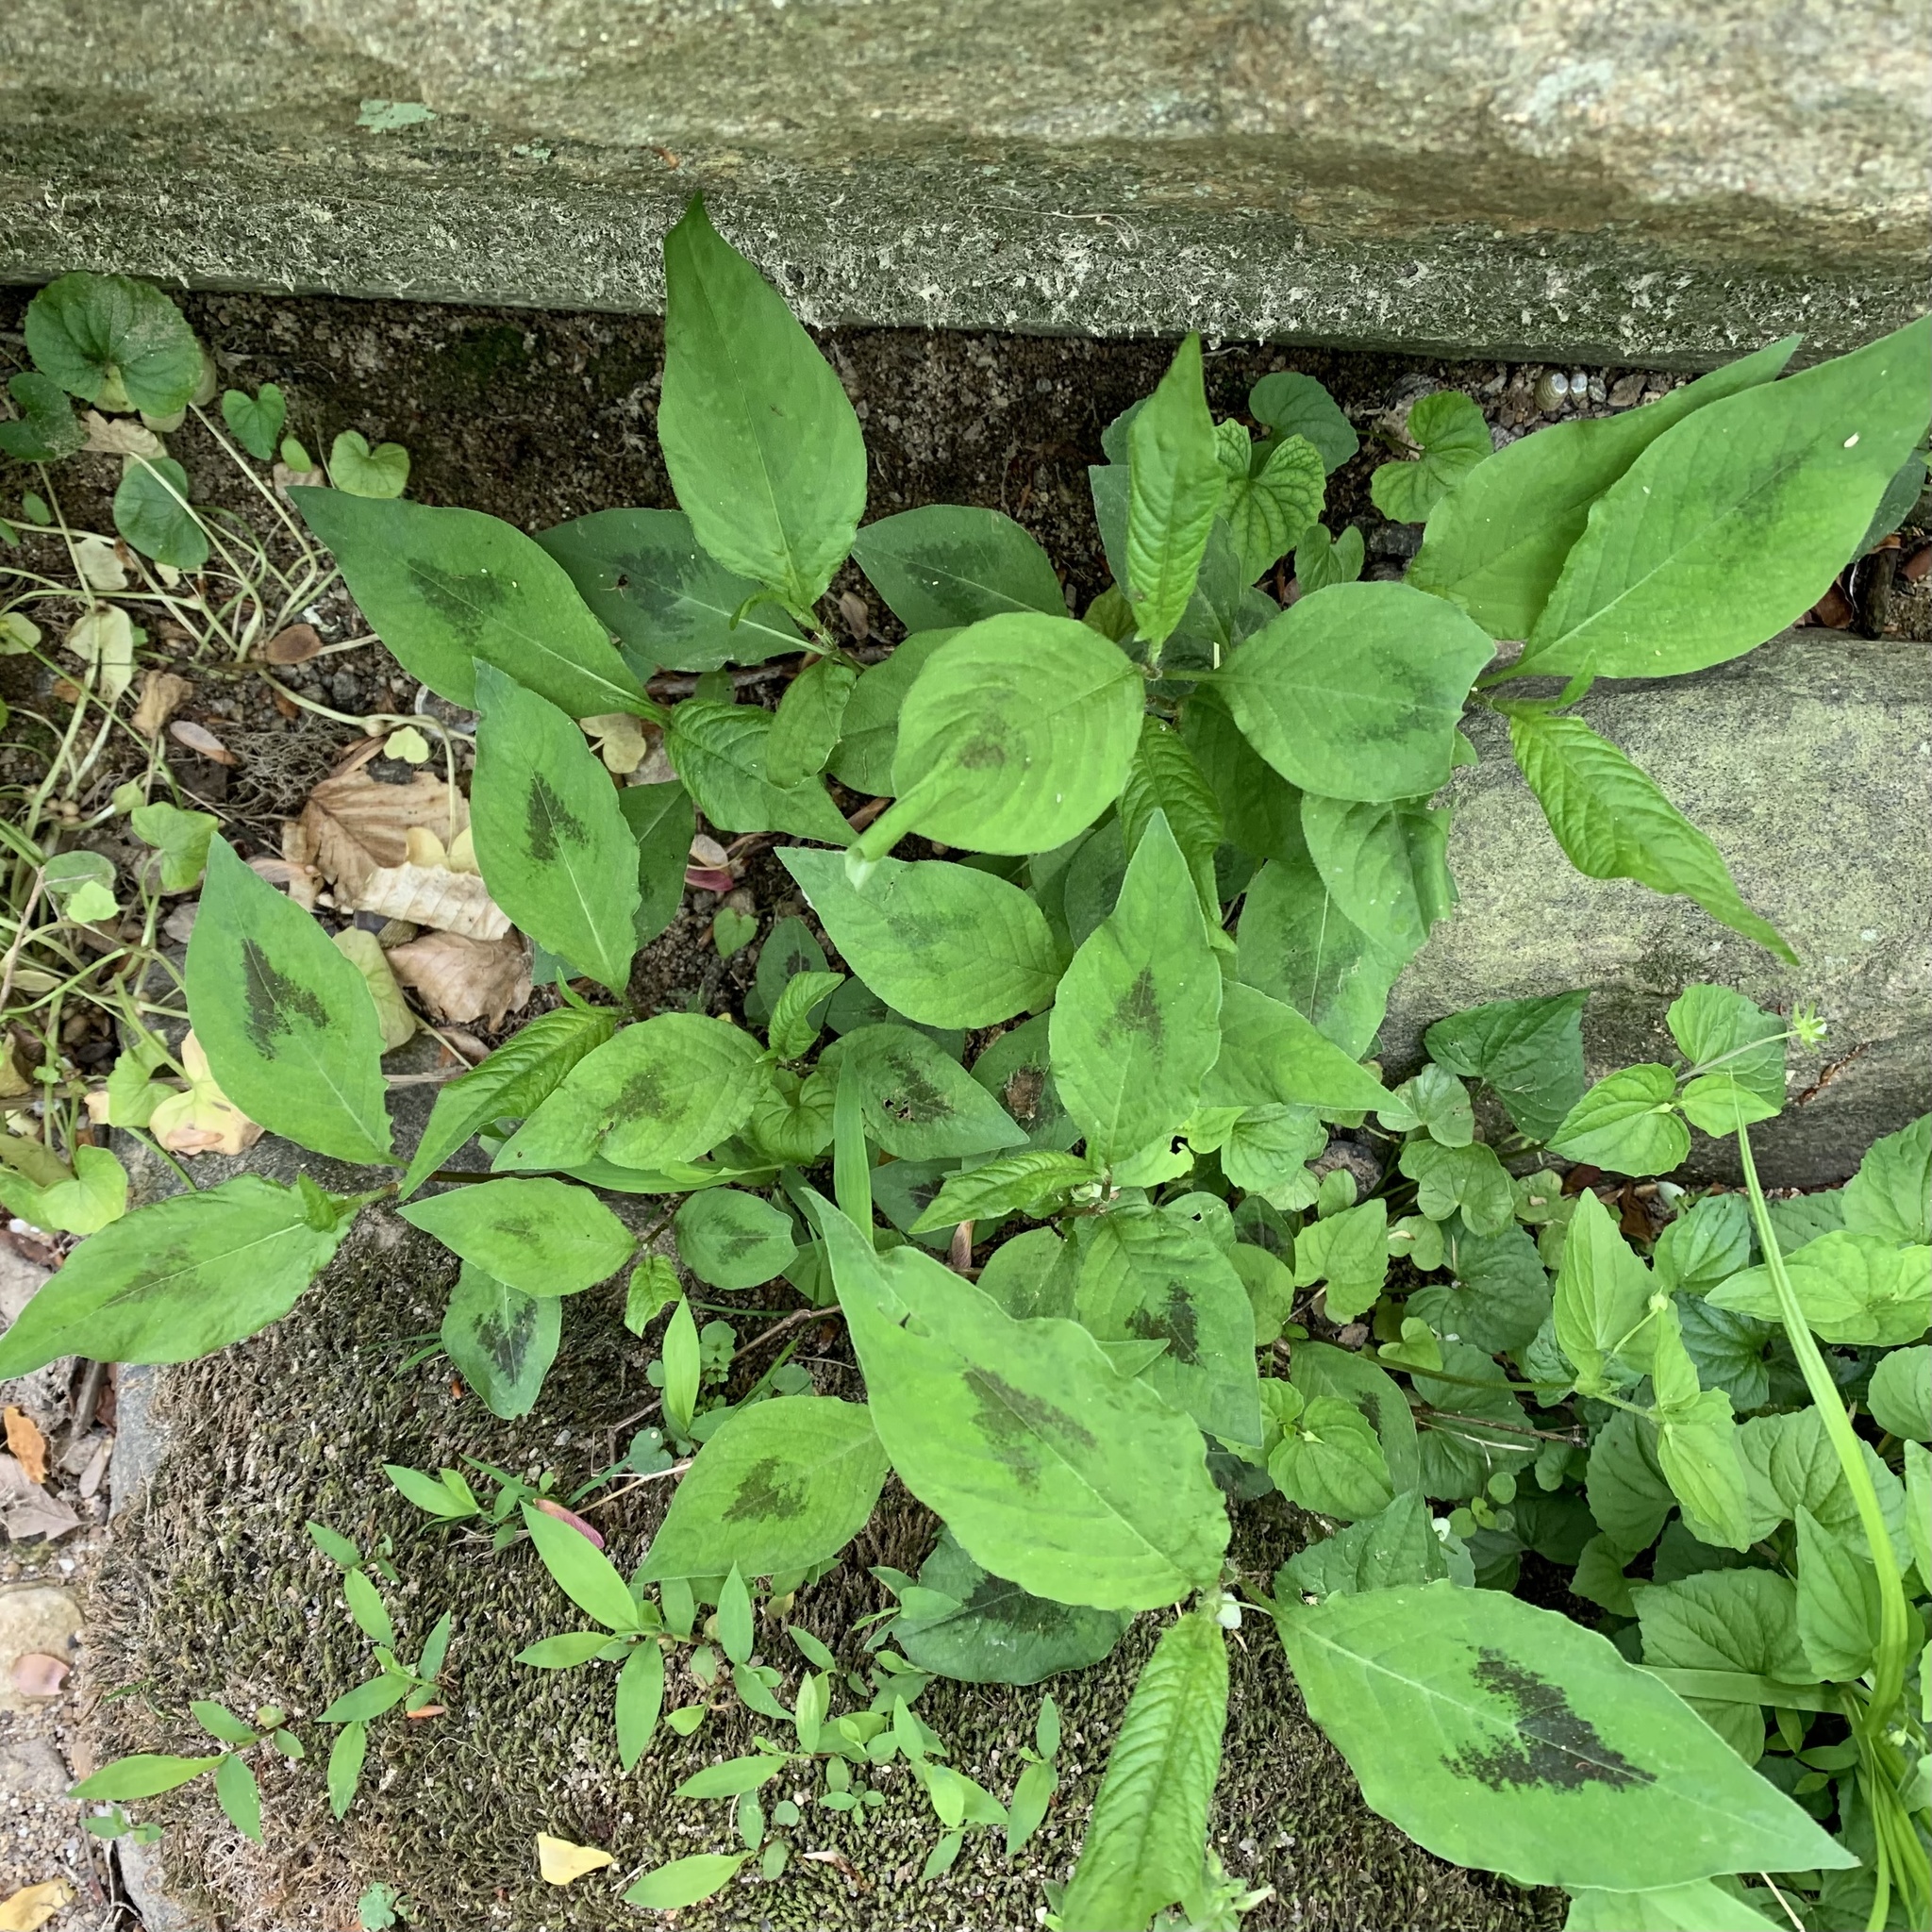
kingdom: Plantae
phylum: Tracheophyta
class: Magnoliopsida
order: Caryophyllales
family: Polygonaceae
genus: Persicaria
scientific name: Persicaria virginiana
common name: Jumpseed
